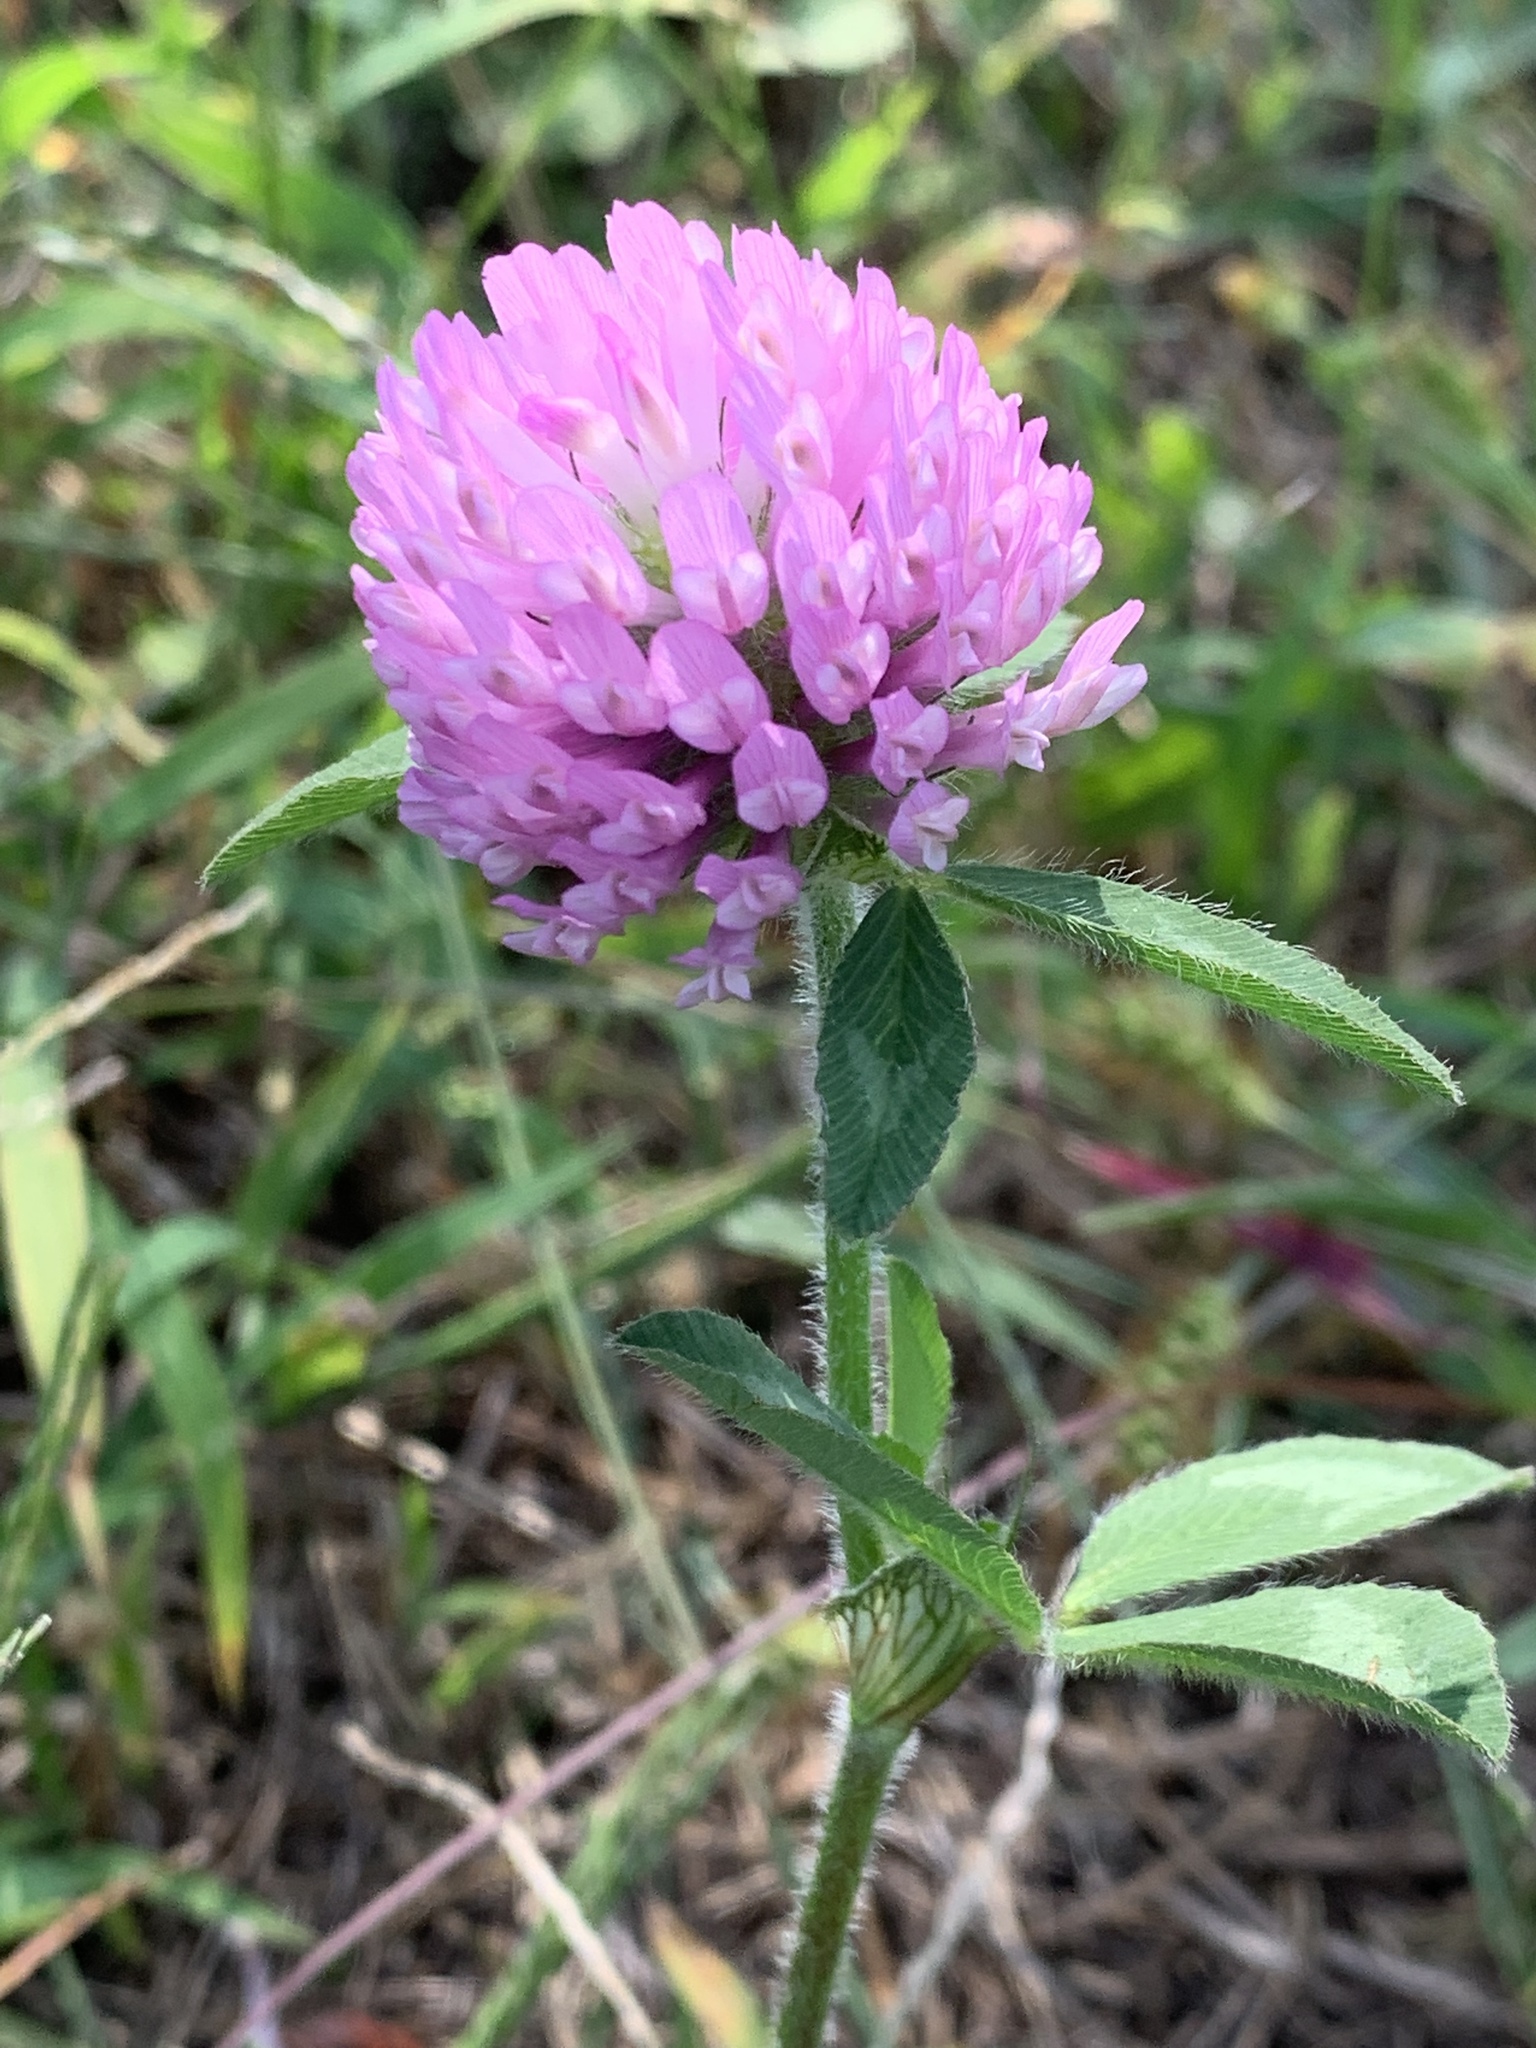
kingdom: Plantae
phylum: Tracheophyta
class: Magnoliopsida
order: Fabales
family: Fabaceae
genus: Trifolium
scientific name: Trifolium pratense
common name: Red clover
